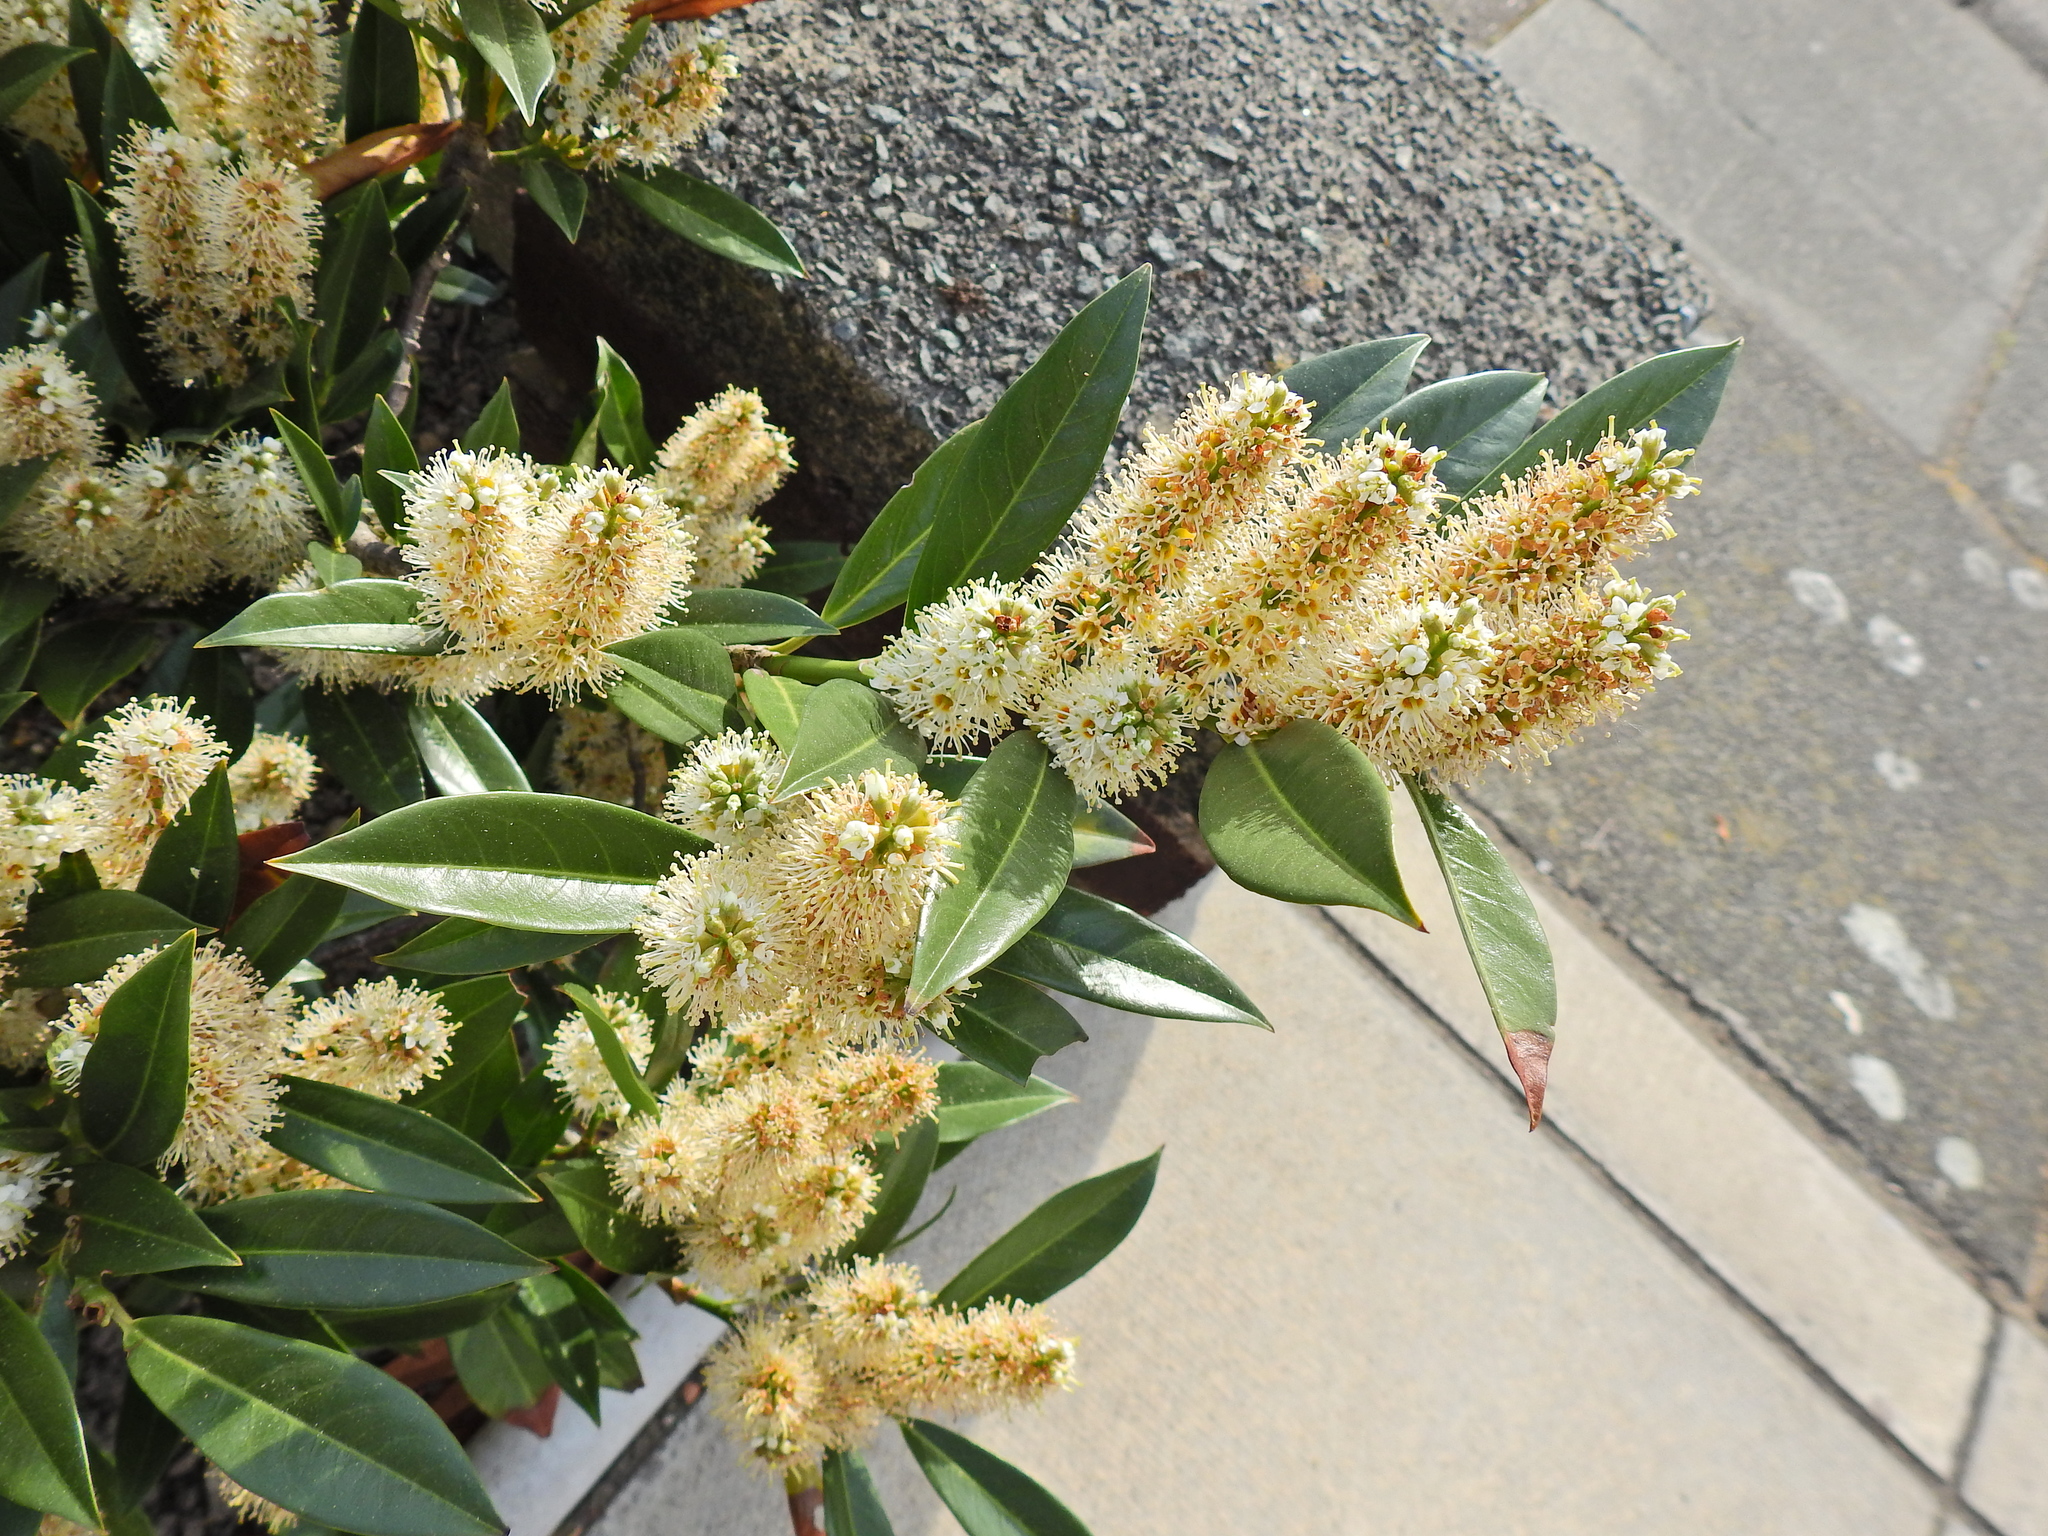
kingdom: Plantae
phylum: Tracheophyta
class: Magnoliopsida
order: Rosales
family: Rosaceae
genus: Prunus
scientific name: Prunus laurocerasus
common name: Cherry laurel
